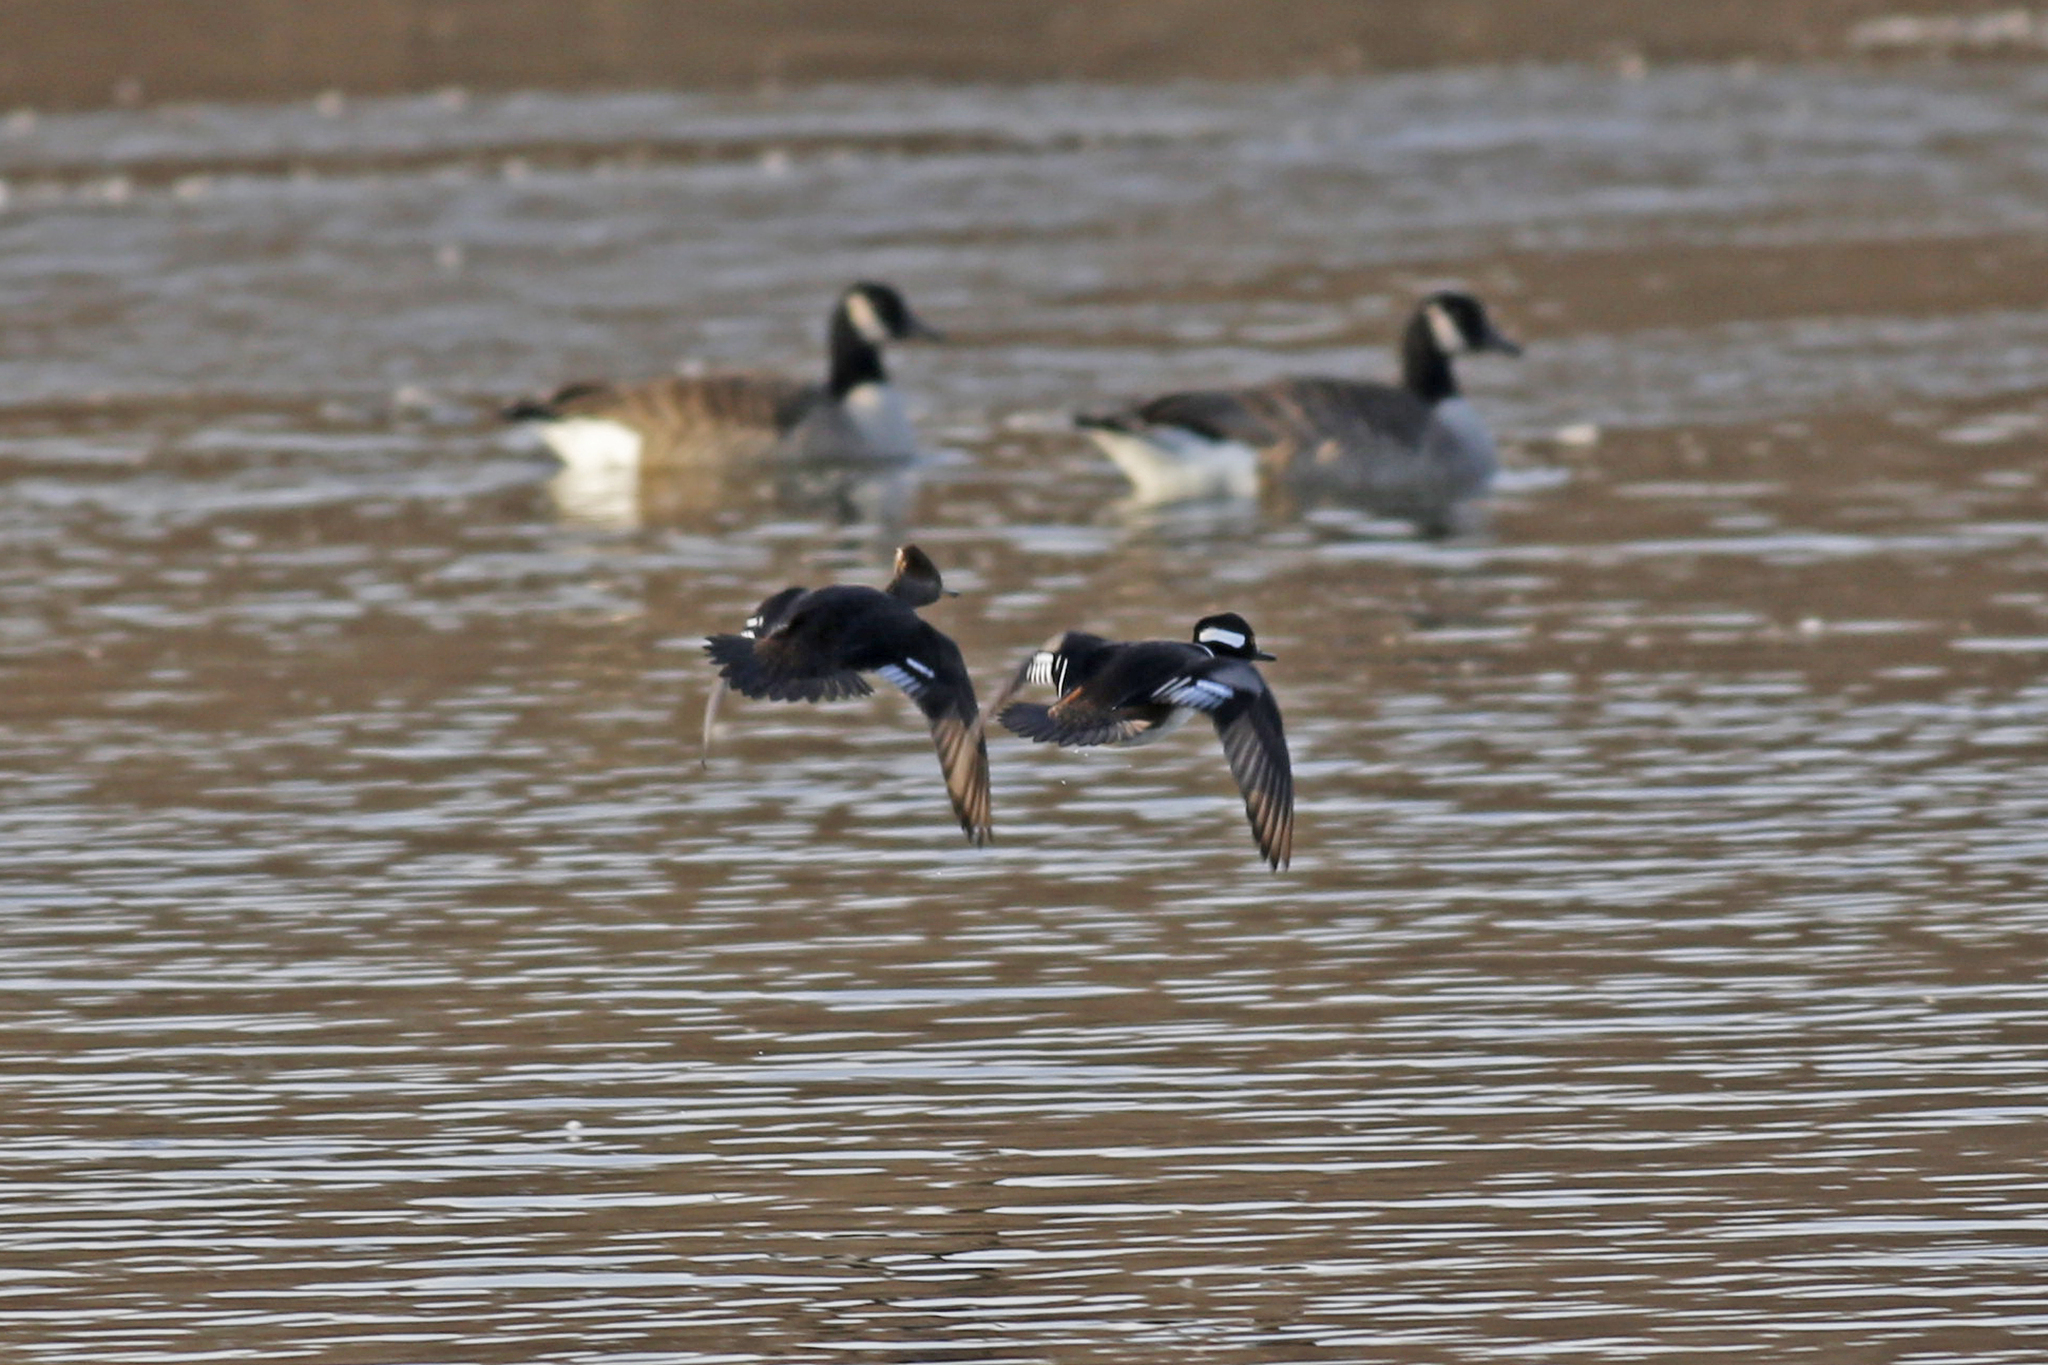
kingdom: Animalia
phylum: Chordata
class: Aves
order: Anseriformes
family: Anatidae
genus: Lophodytes
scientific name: Lophodytes cucullatus
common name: Hooded merganser
